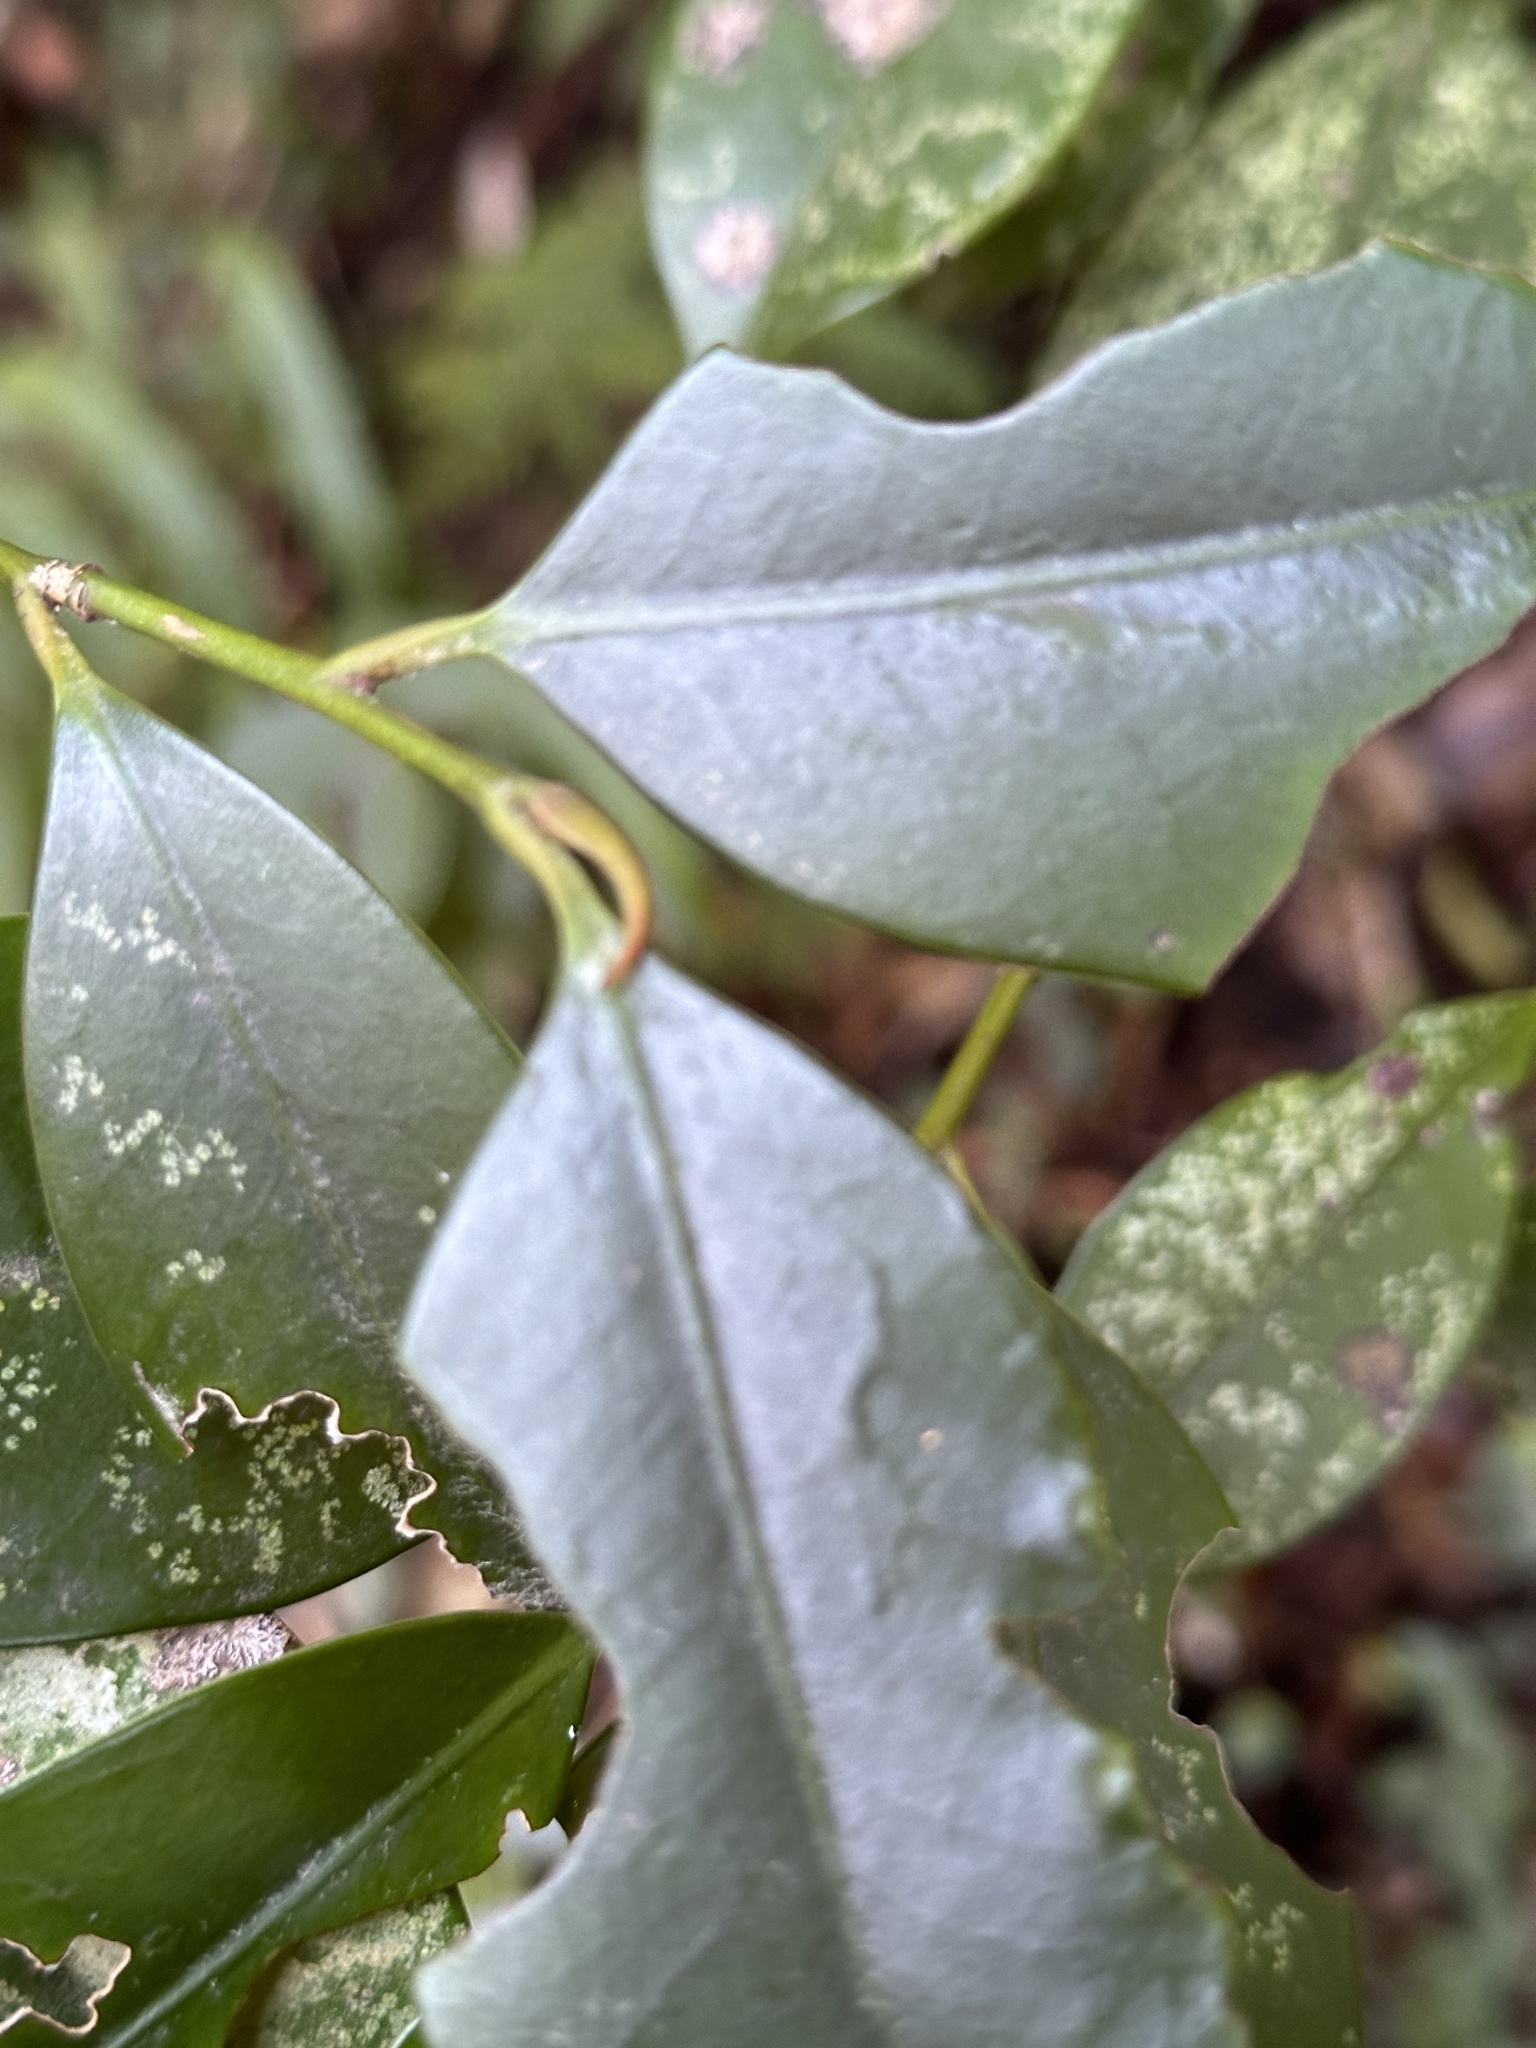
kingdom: Plantae
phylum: Tracheophyta
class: Magnoliopsida
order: Ericales
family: Pentaphylacaceae
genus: Cleyera
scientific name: Cleyera japonica
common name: Sakaki
